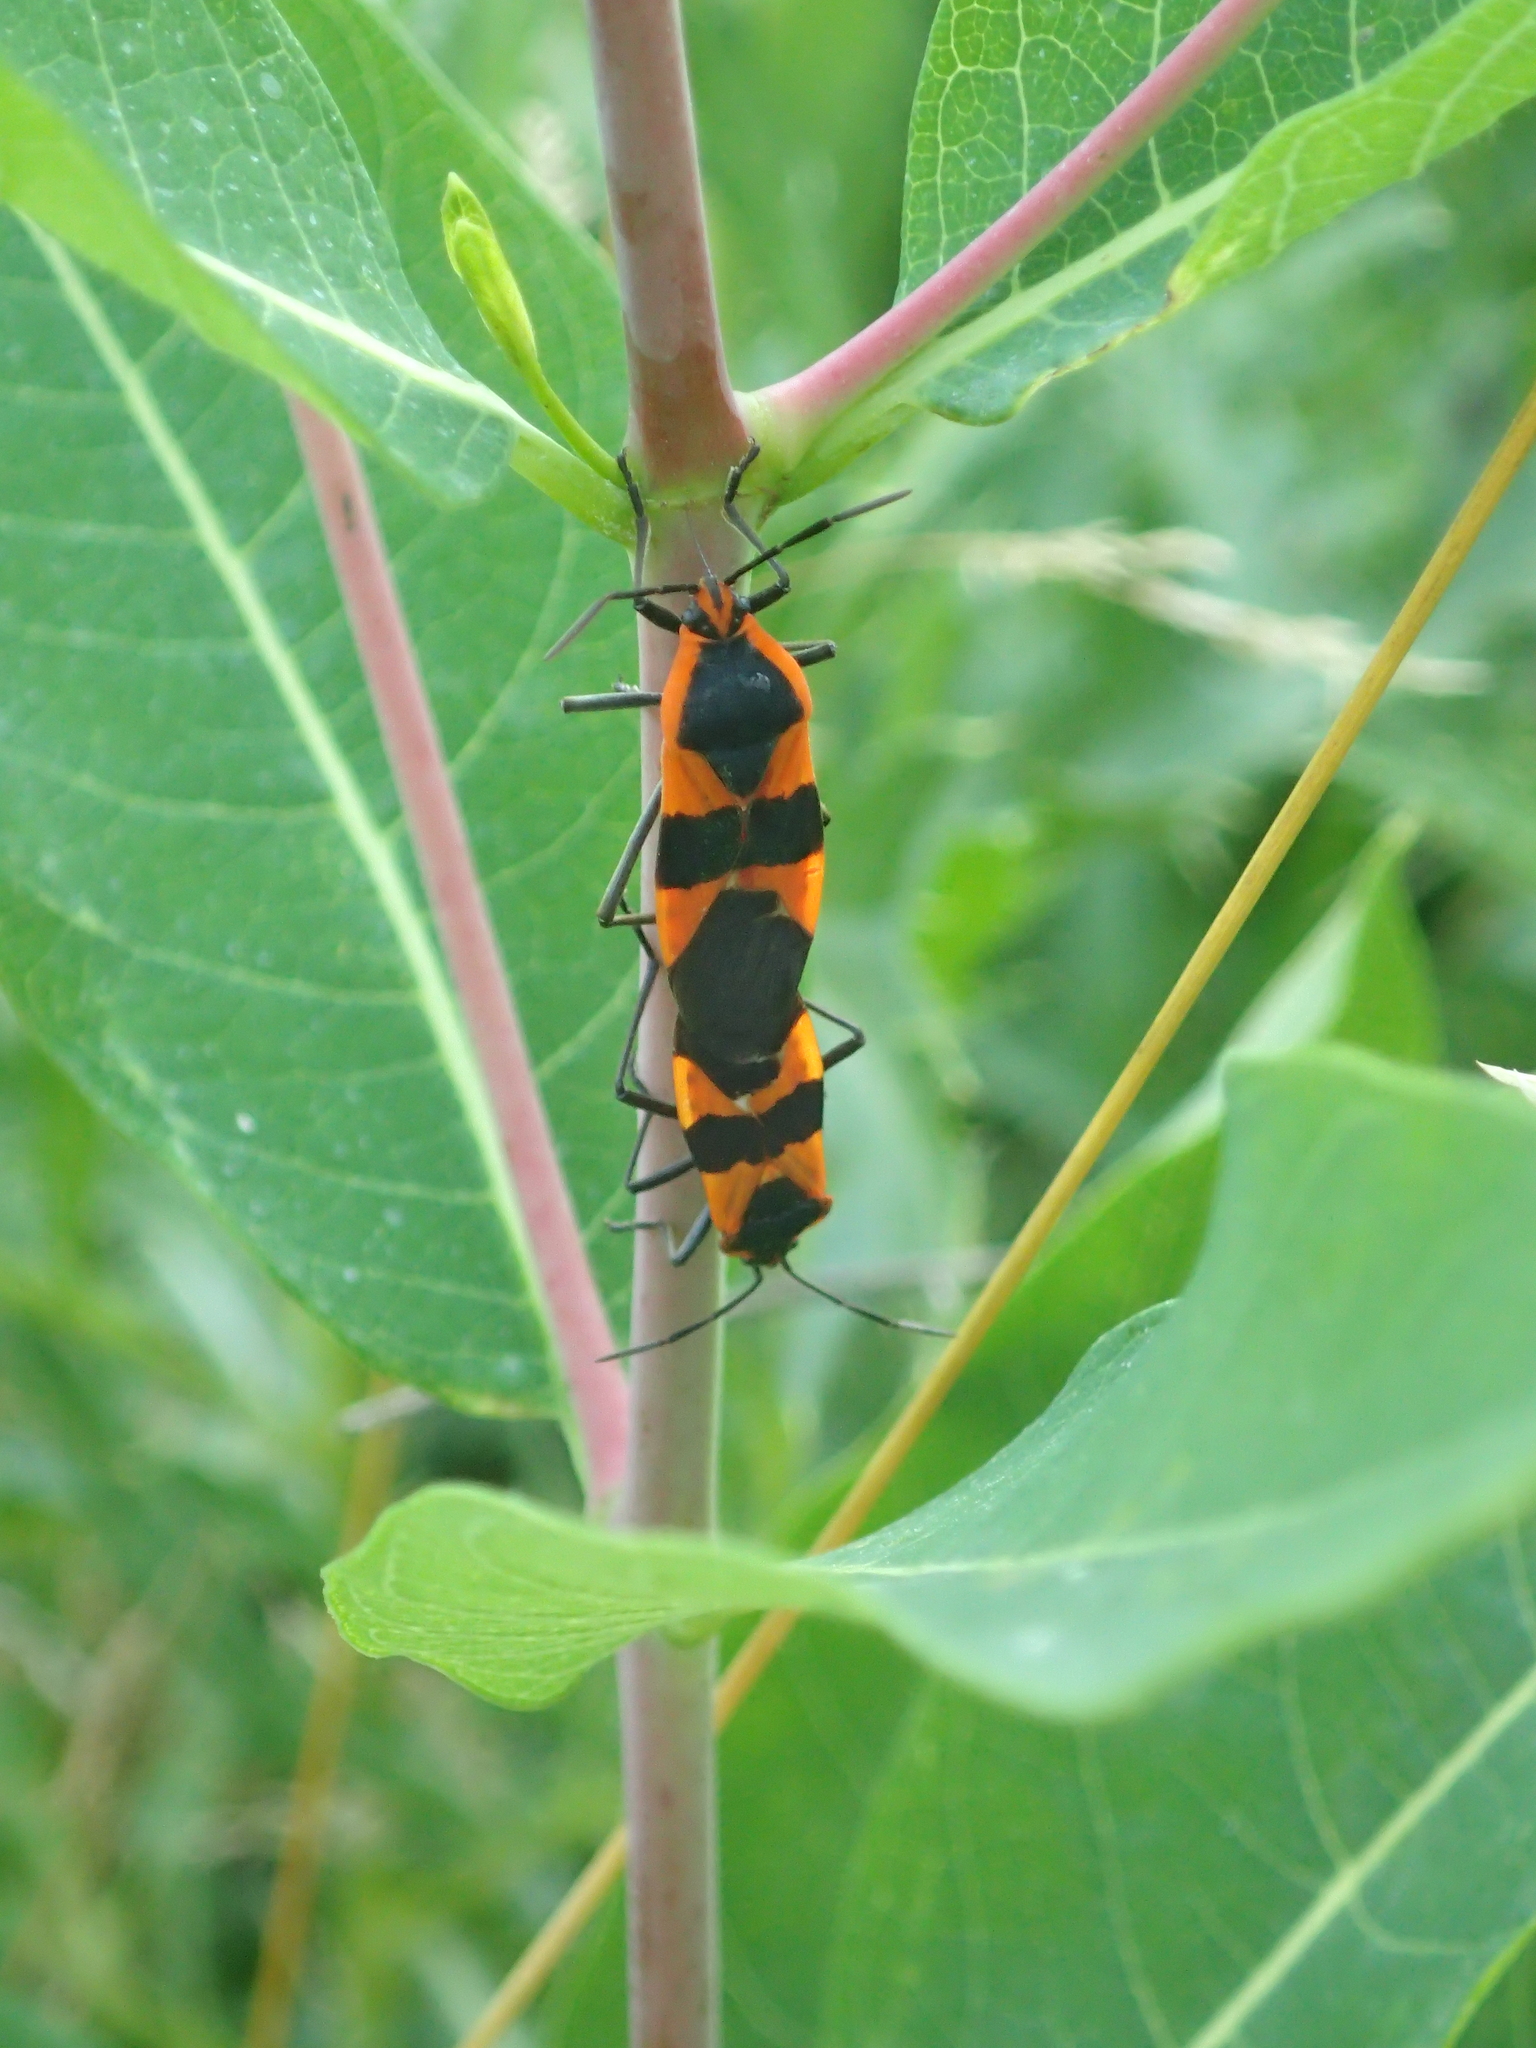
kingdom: Animalia
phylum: Arthropoda
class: Insecta
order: Hemiptera
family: Lygaeidae
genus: Oncopeltus
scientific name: Oncopeltus fasciatus
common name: Large milkweed bug
